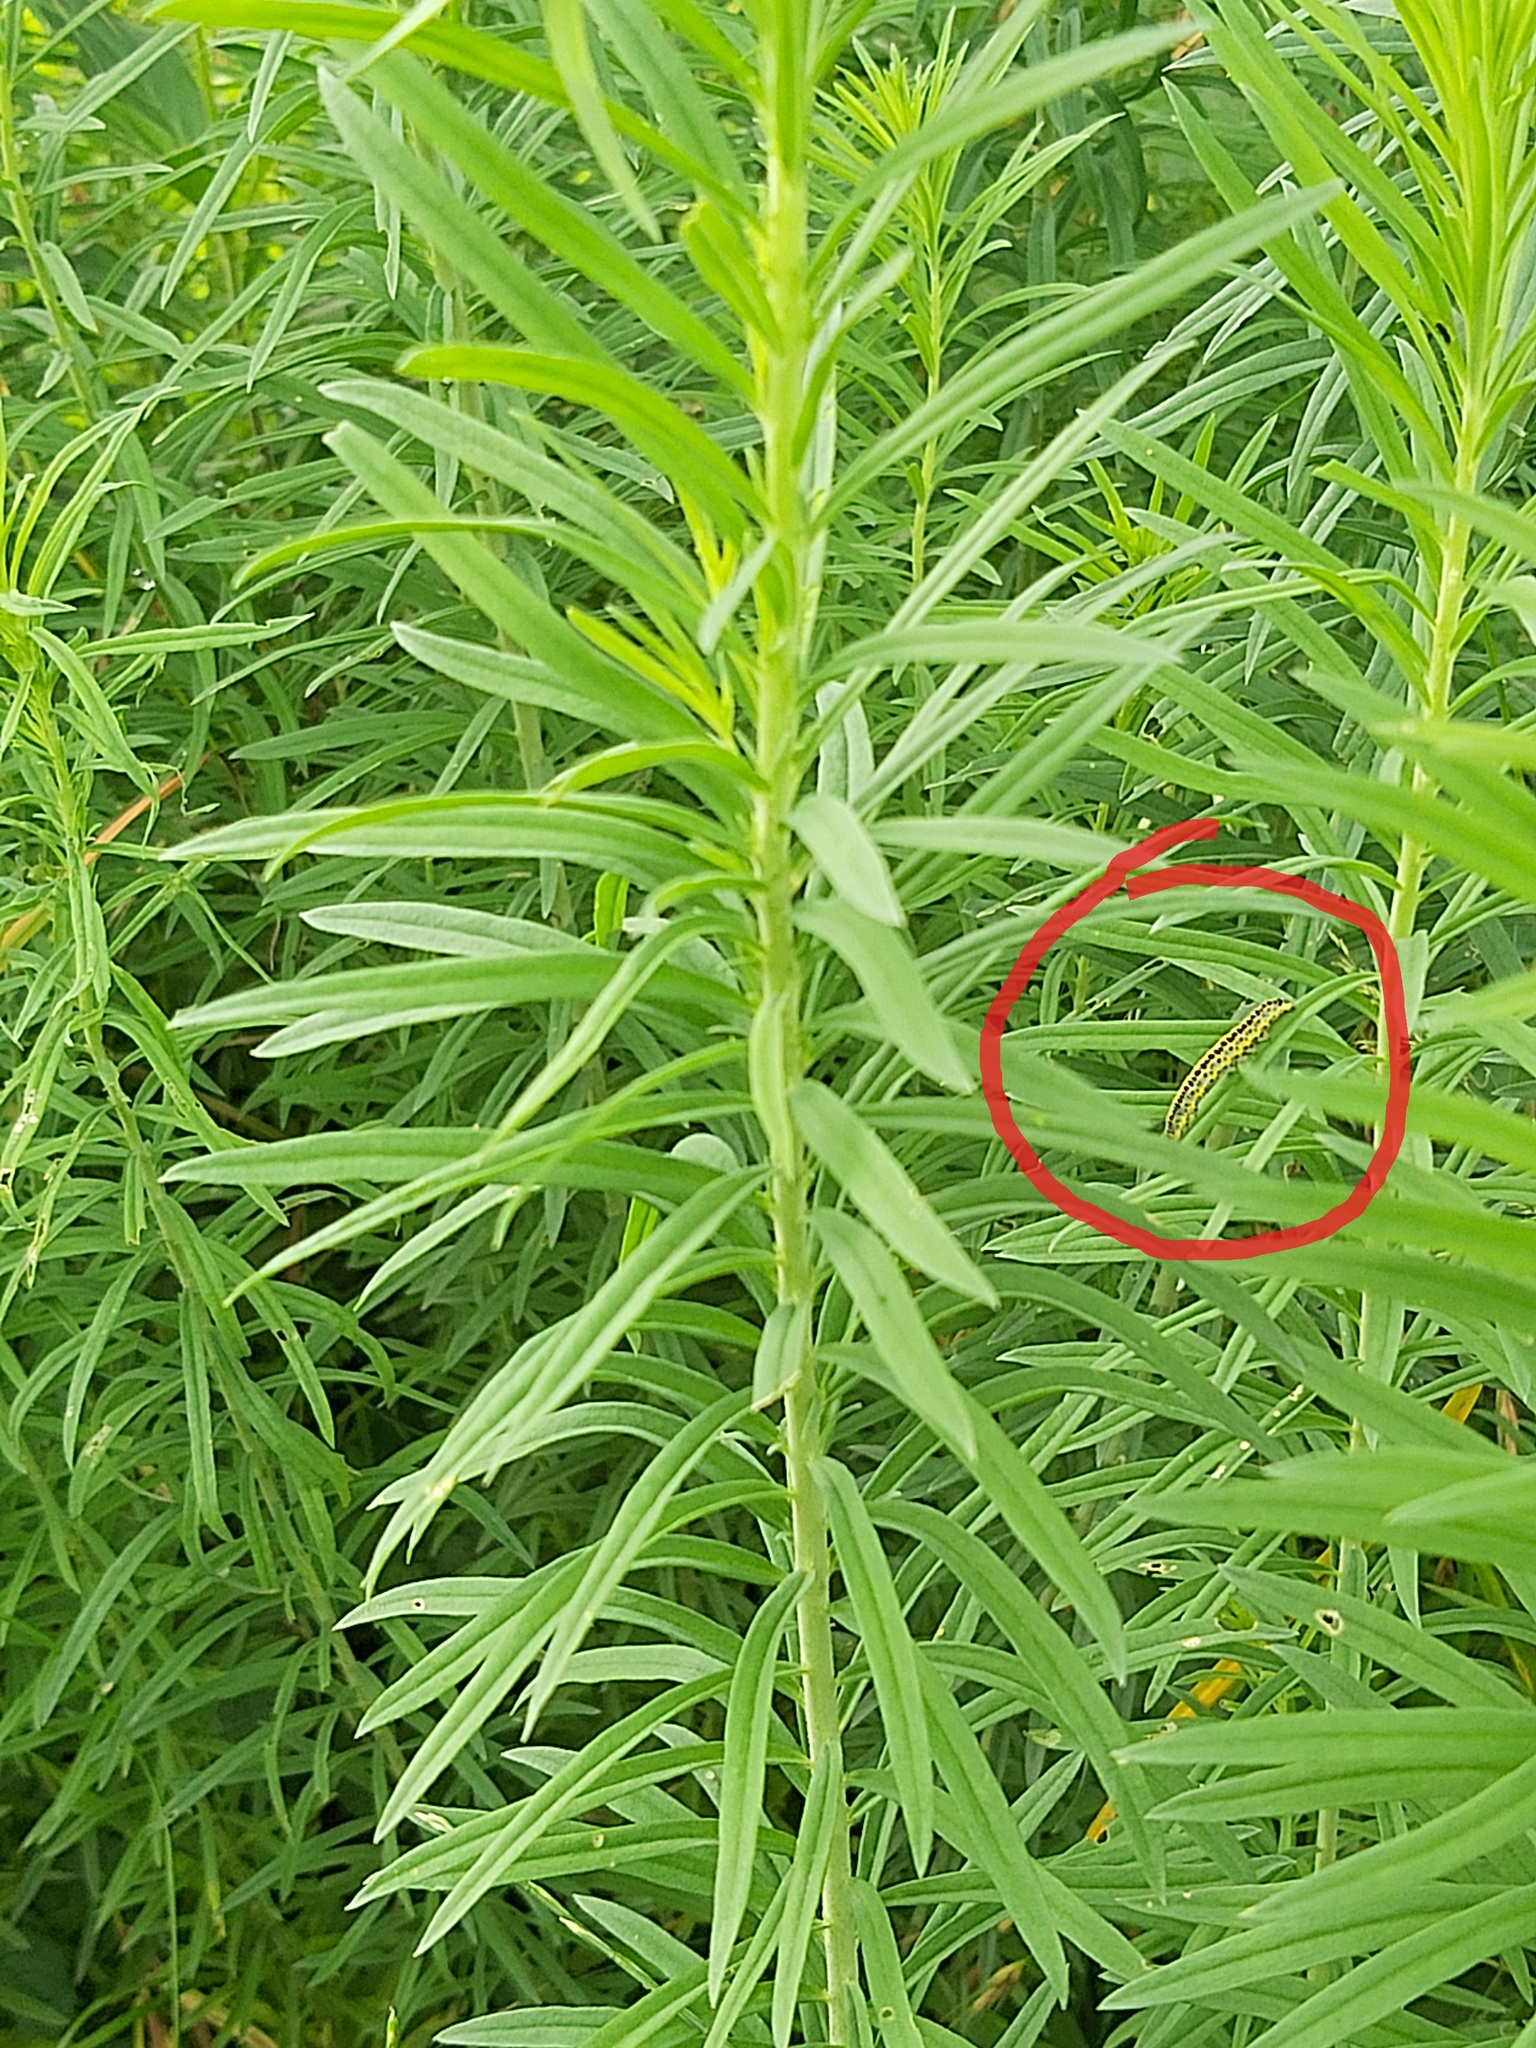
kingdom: Animalia
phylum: Arthropoda
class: Insecta
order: Lepidoptera
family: Noctuidae
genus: Calophasia
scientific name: Calophasia lunula
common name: Toadflax brocade
